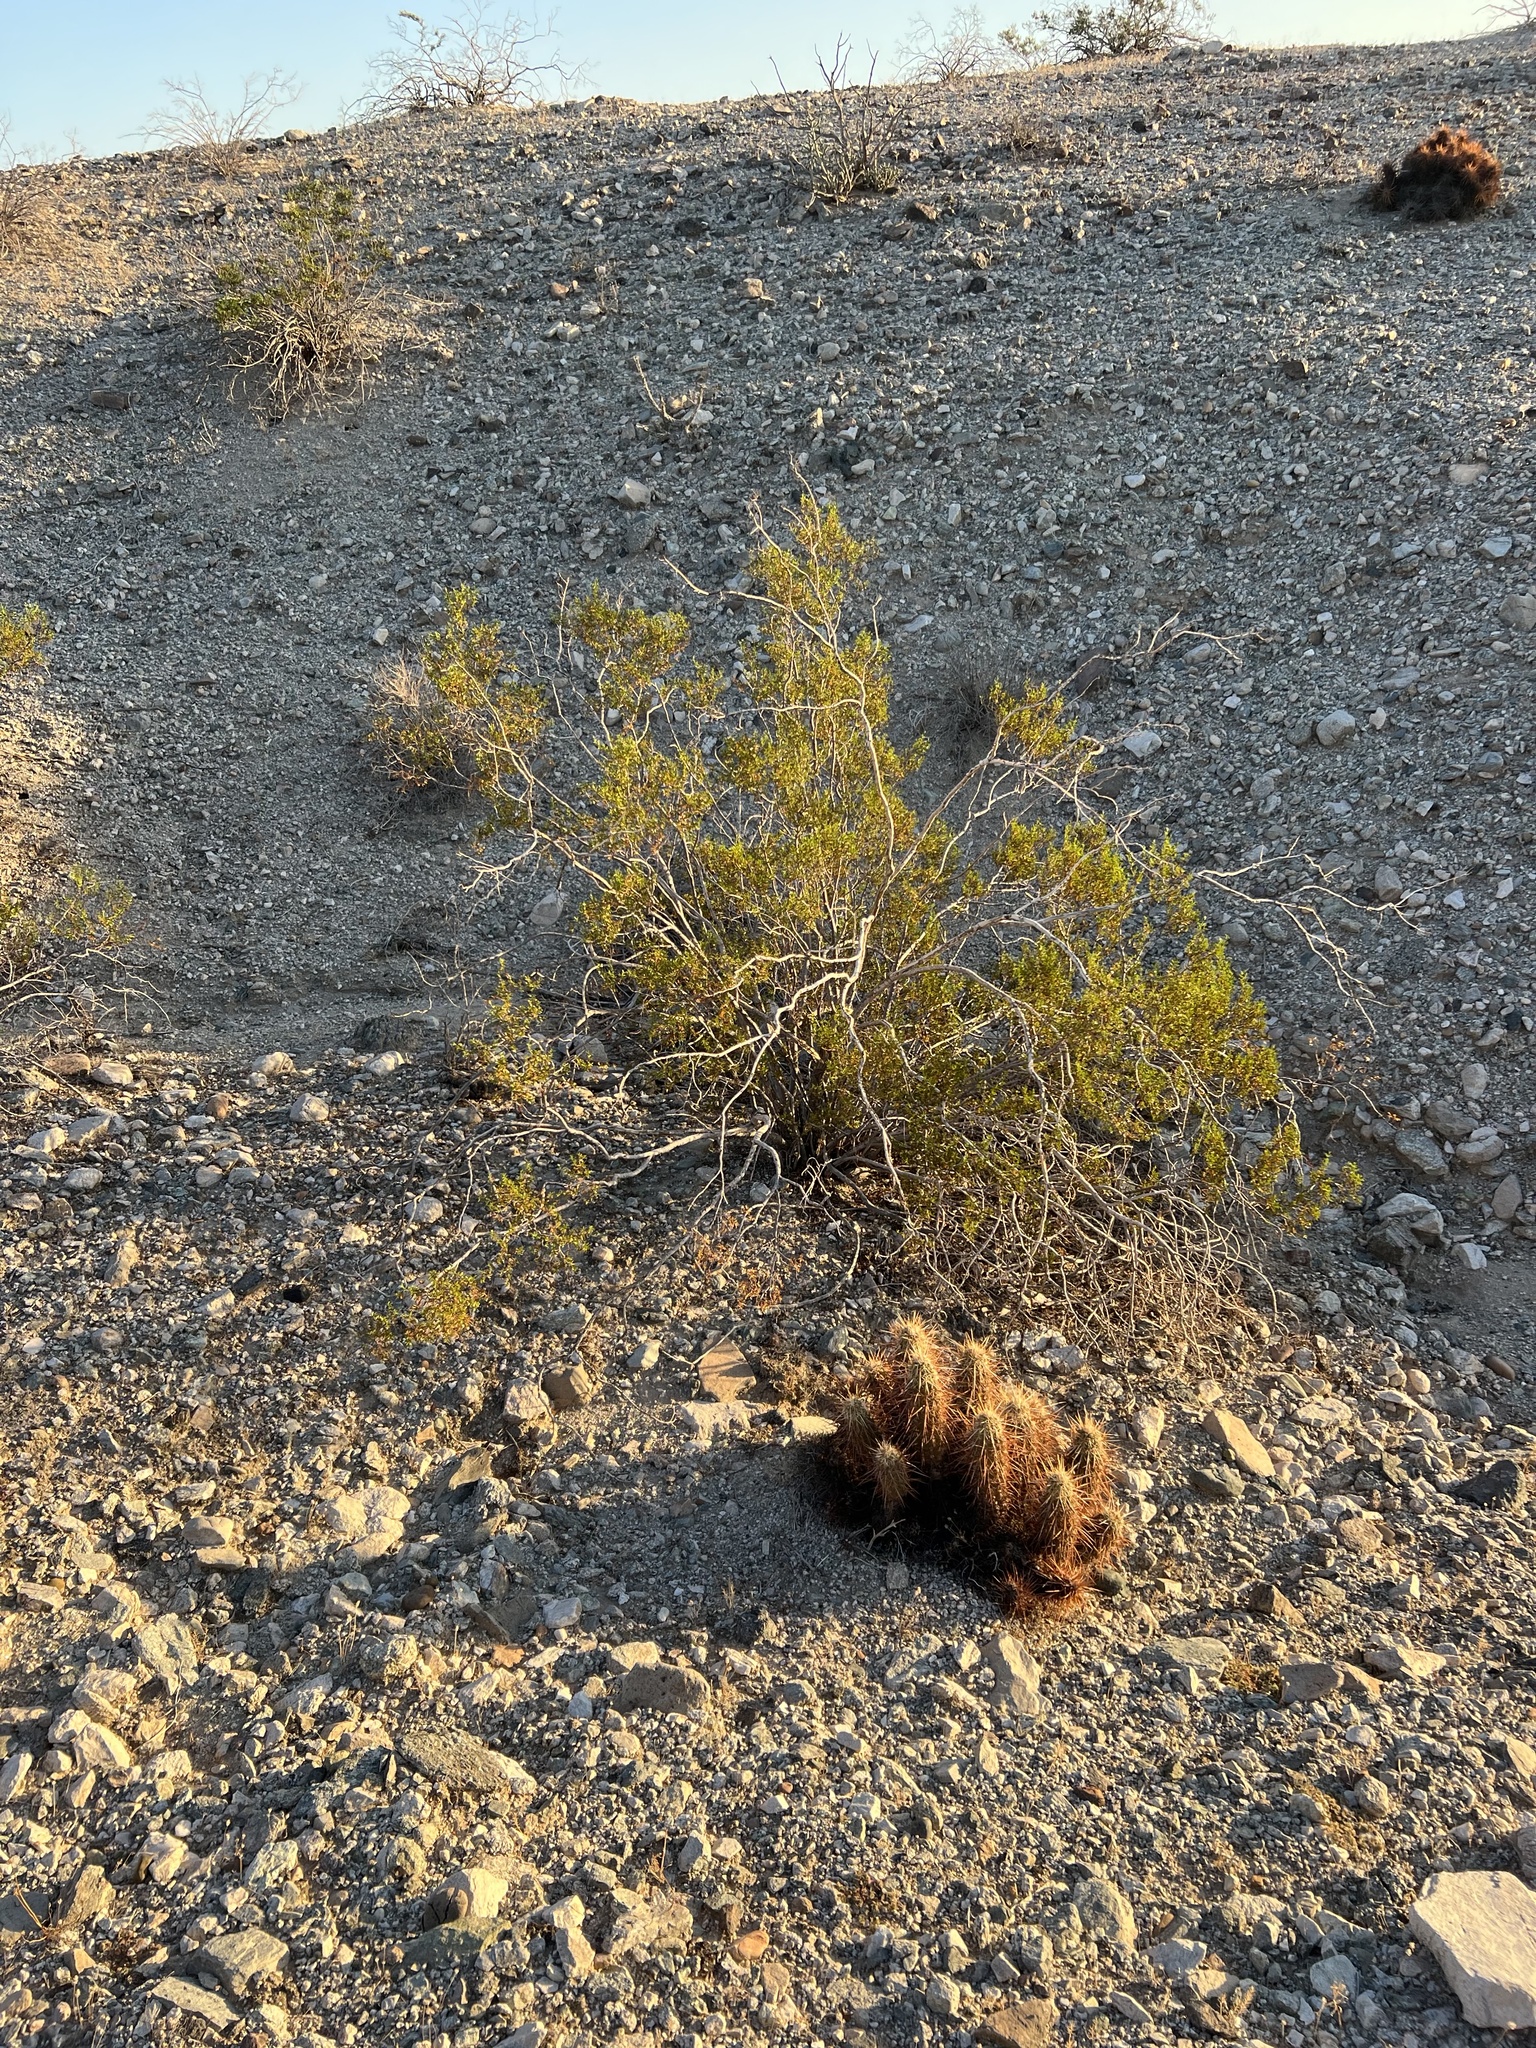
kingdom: Plantae
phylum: Tracheophyta
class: Magnoliopsida
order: Zygophyllales
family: Zygophyllaceae
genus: Larrea
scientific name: Larrea tridentata
